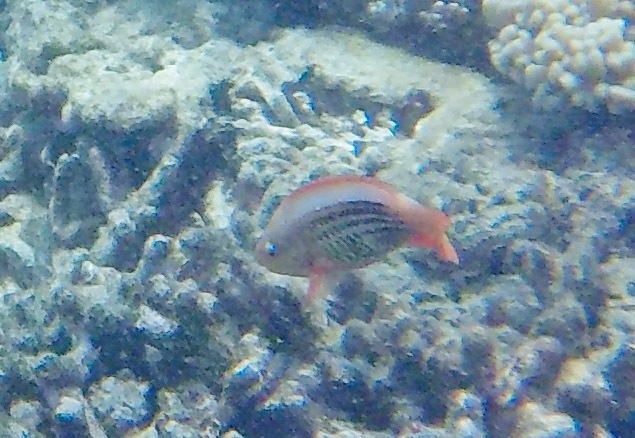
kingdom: Animalia
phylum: Chordata
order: Perciformes
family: Scaridae
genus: Scarus
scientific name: Scarus frenatus
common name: Bridled parrotfish
